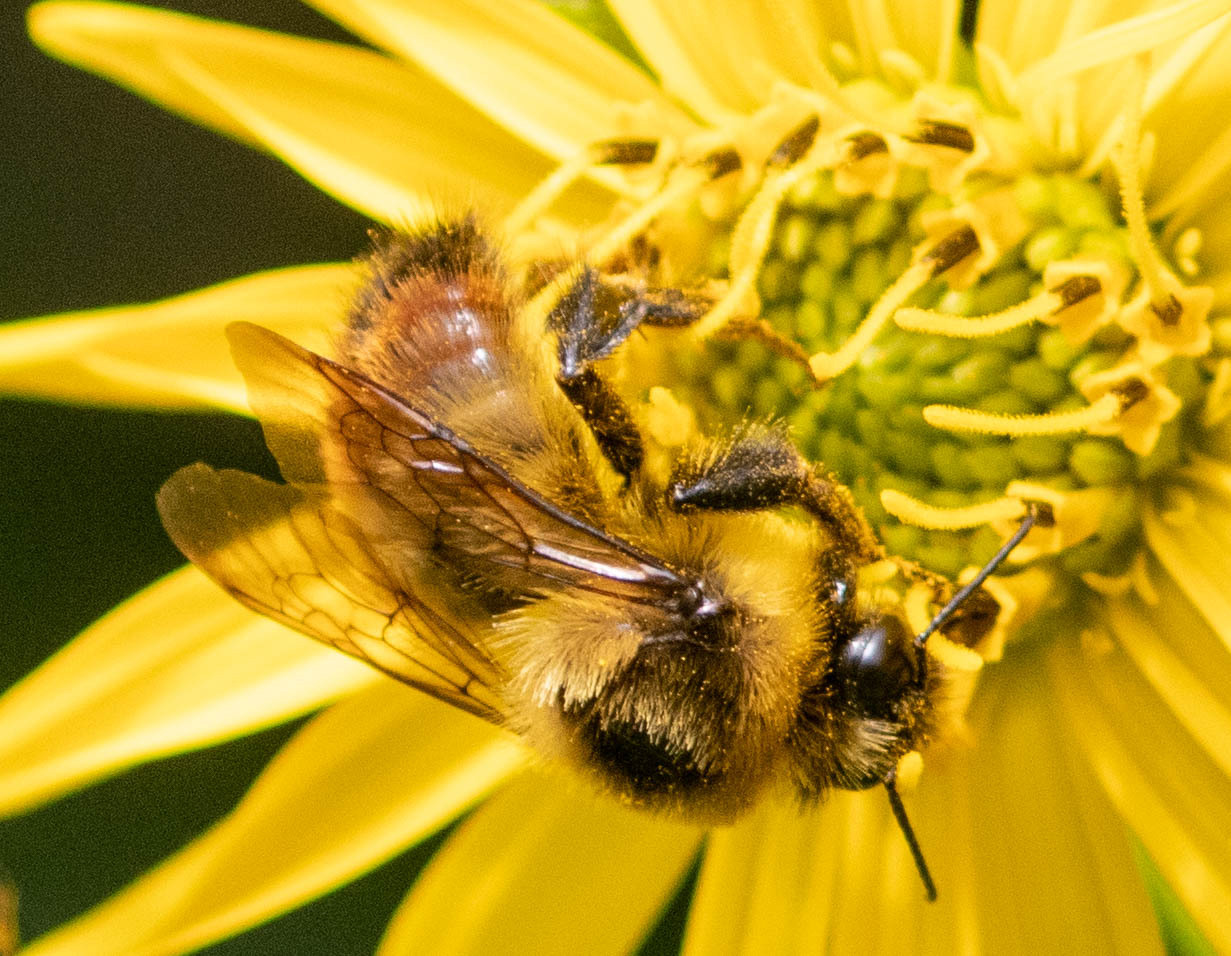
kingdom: Animalia
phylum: Arthropoda
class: Insecta
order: Hymenoptera
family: Apidae
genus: Bombus
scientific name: Bombus rufocinctus
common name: Red-belted bumble bee
